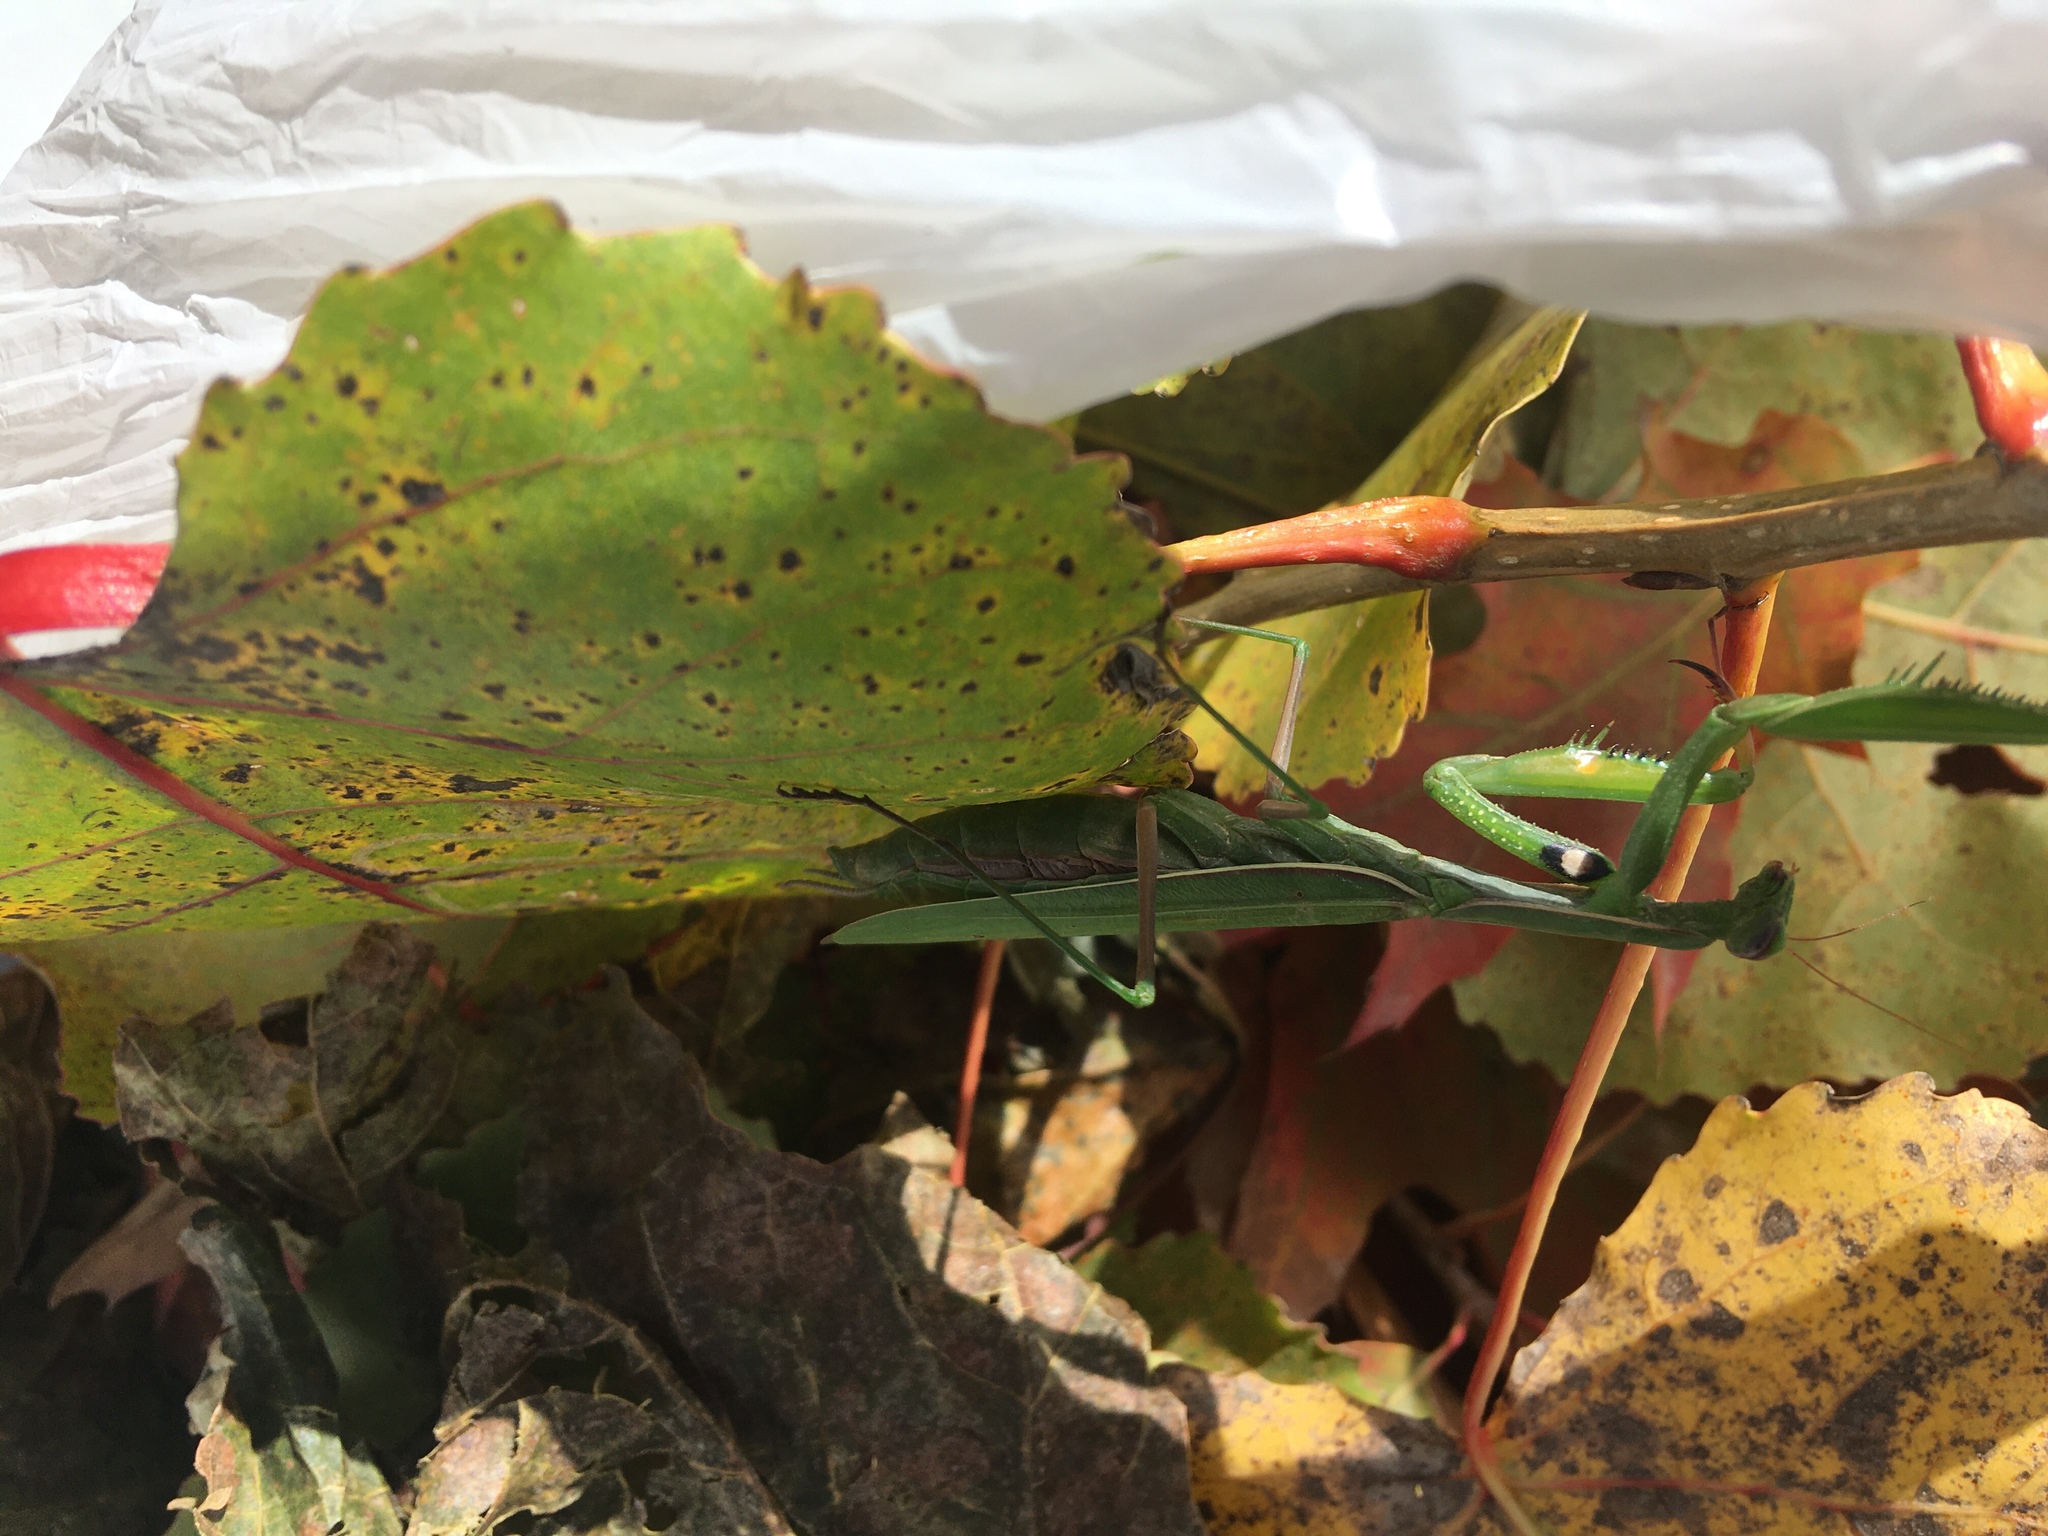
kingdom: Animalia
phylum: Arthropoda
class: Insecta
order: Mantodea
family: Mantidae
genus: Mantis
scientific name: Mantis religiosa
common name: Praying mantis
